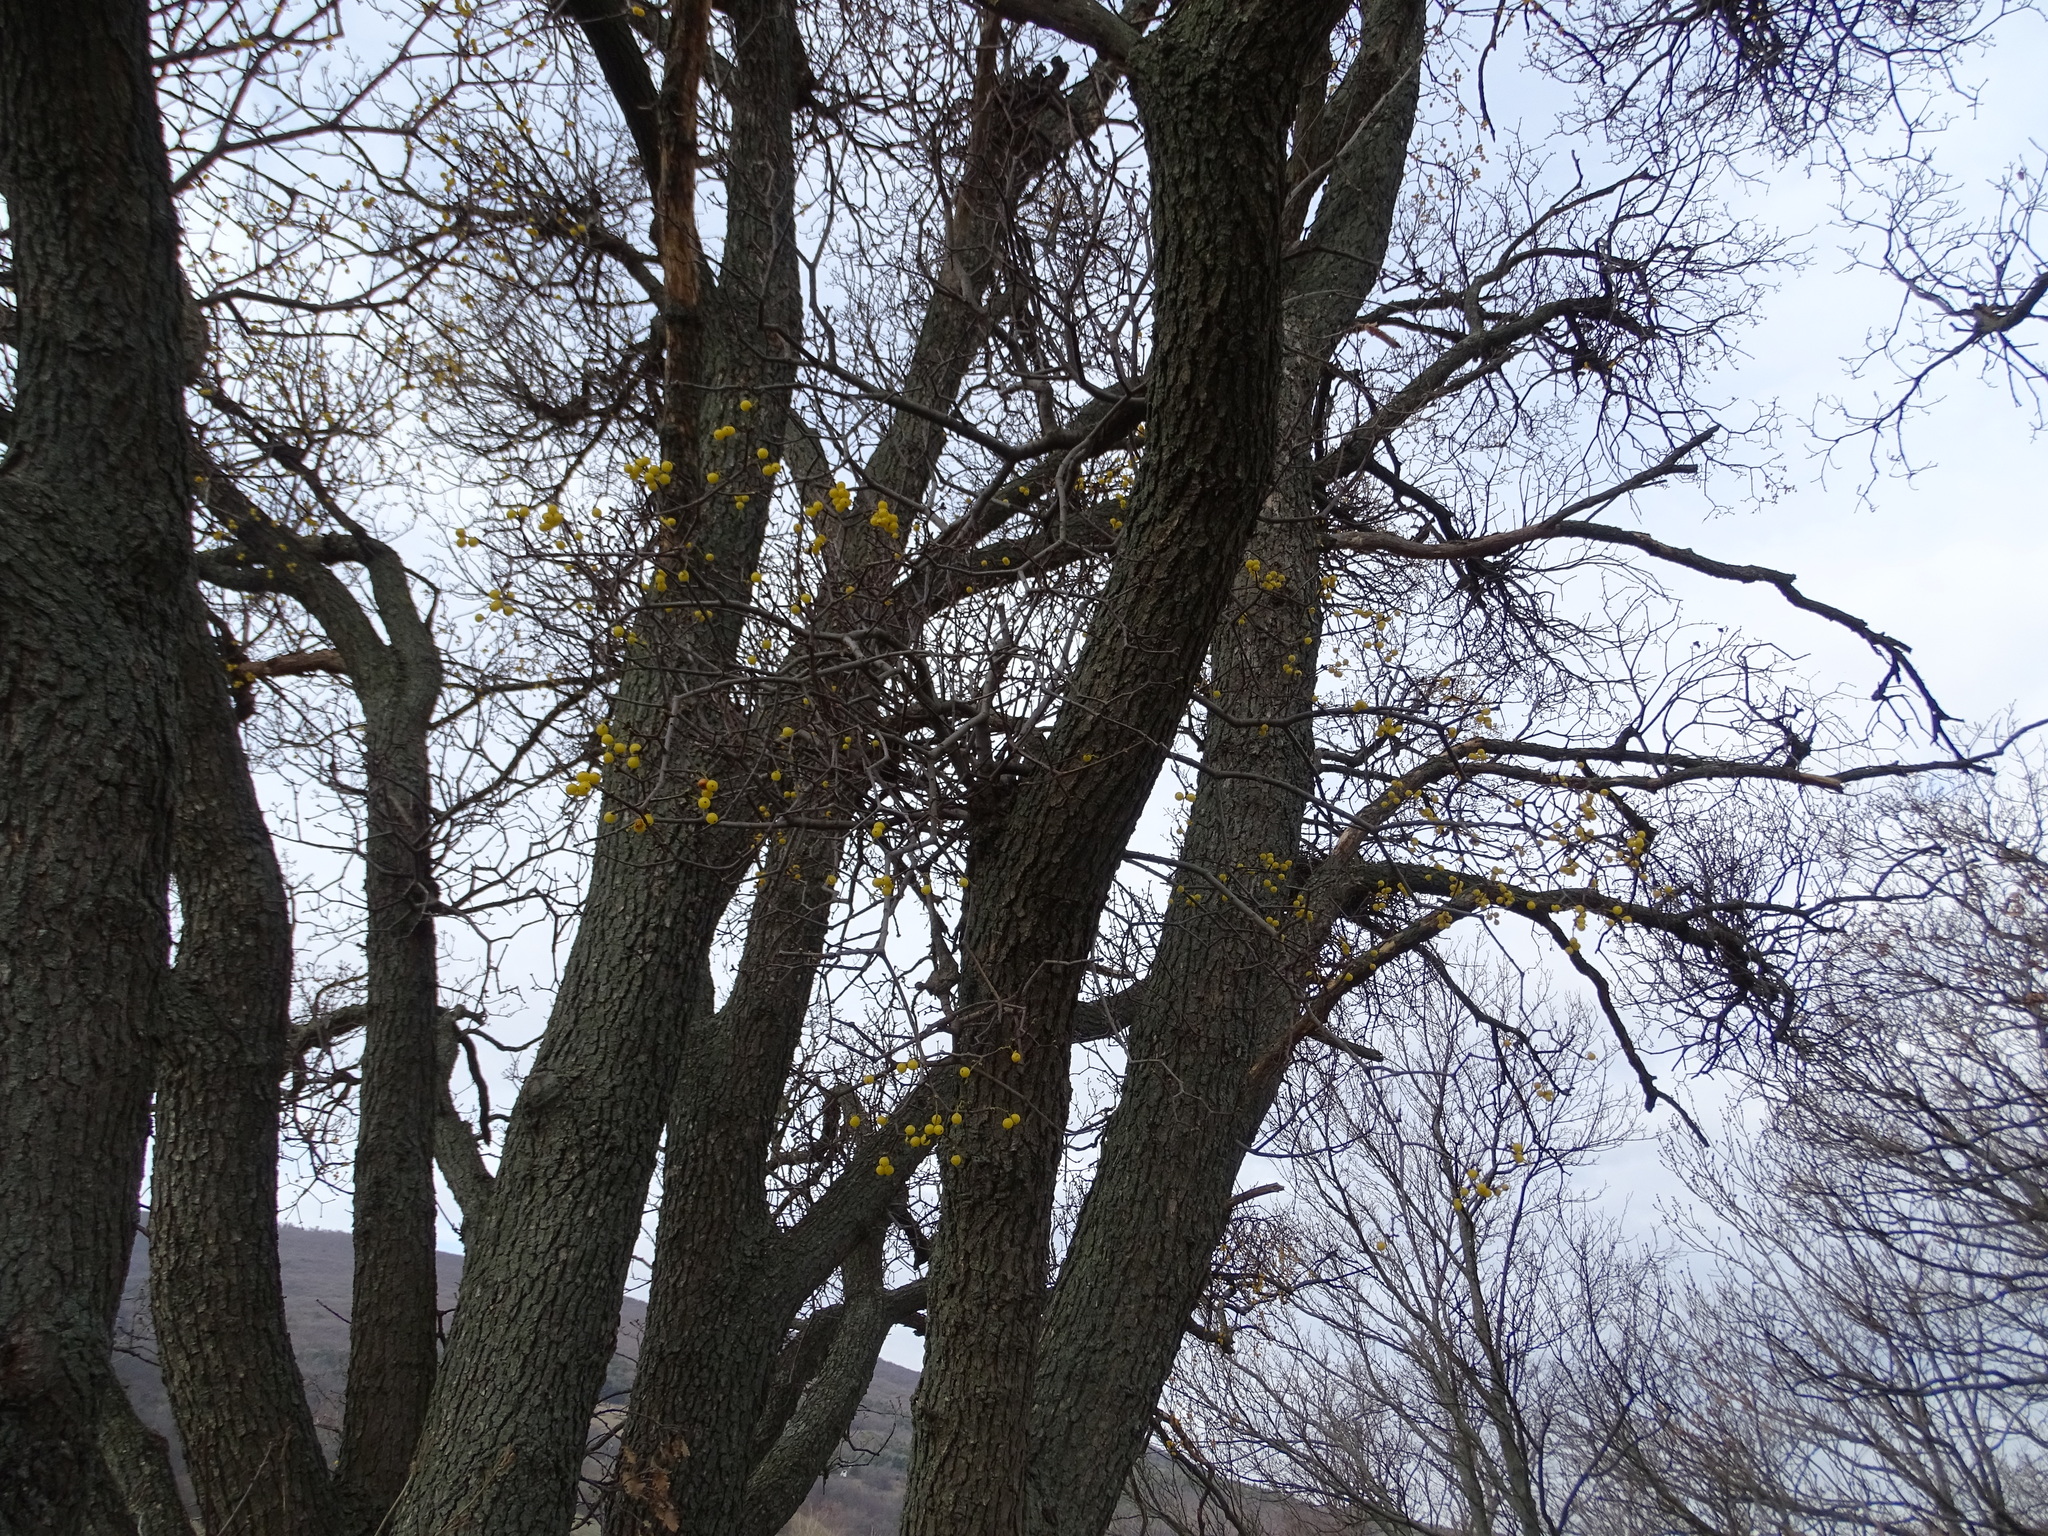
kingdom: Plantae
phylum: Tracheophyta
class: Magnoliopsida
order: Santalales
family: Loranthaceae
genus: Loranthus
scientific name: Loranthus europaeus
